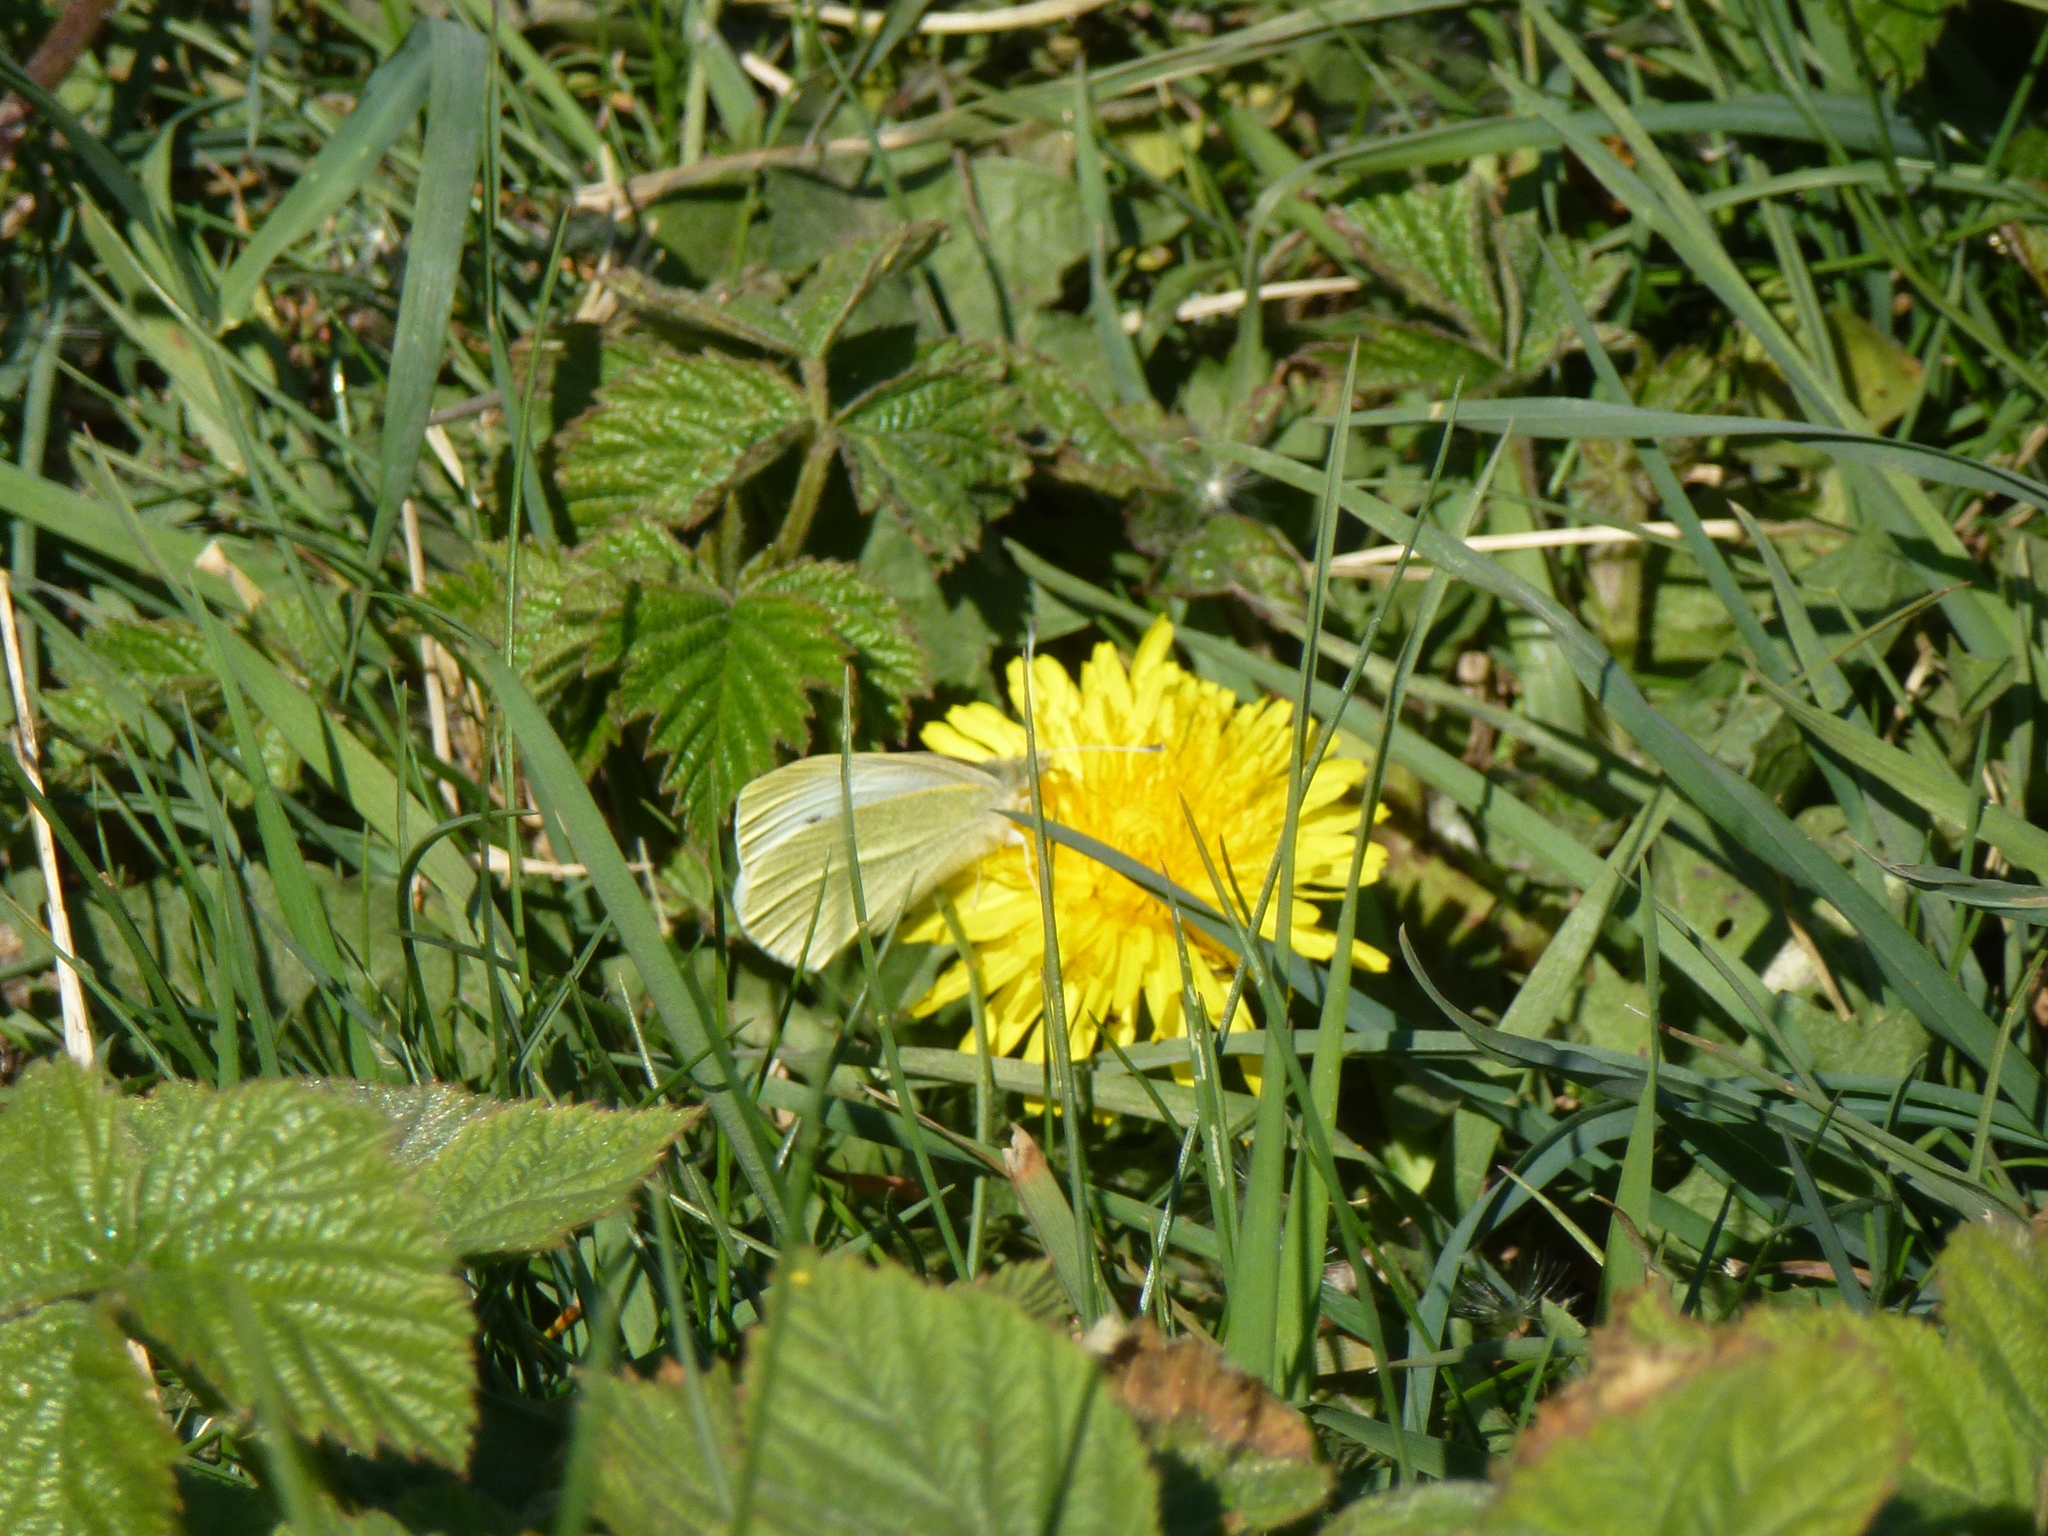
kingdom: Animalia
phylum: Arthropoda
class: Insecta
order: Lepidoptera
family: Pieridae
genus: Pieris
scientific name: Pieris rapae
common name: Small white
